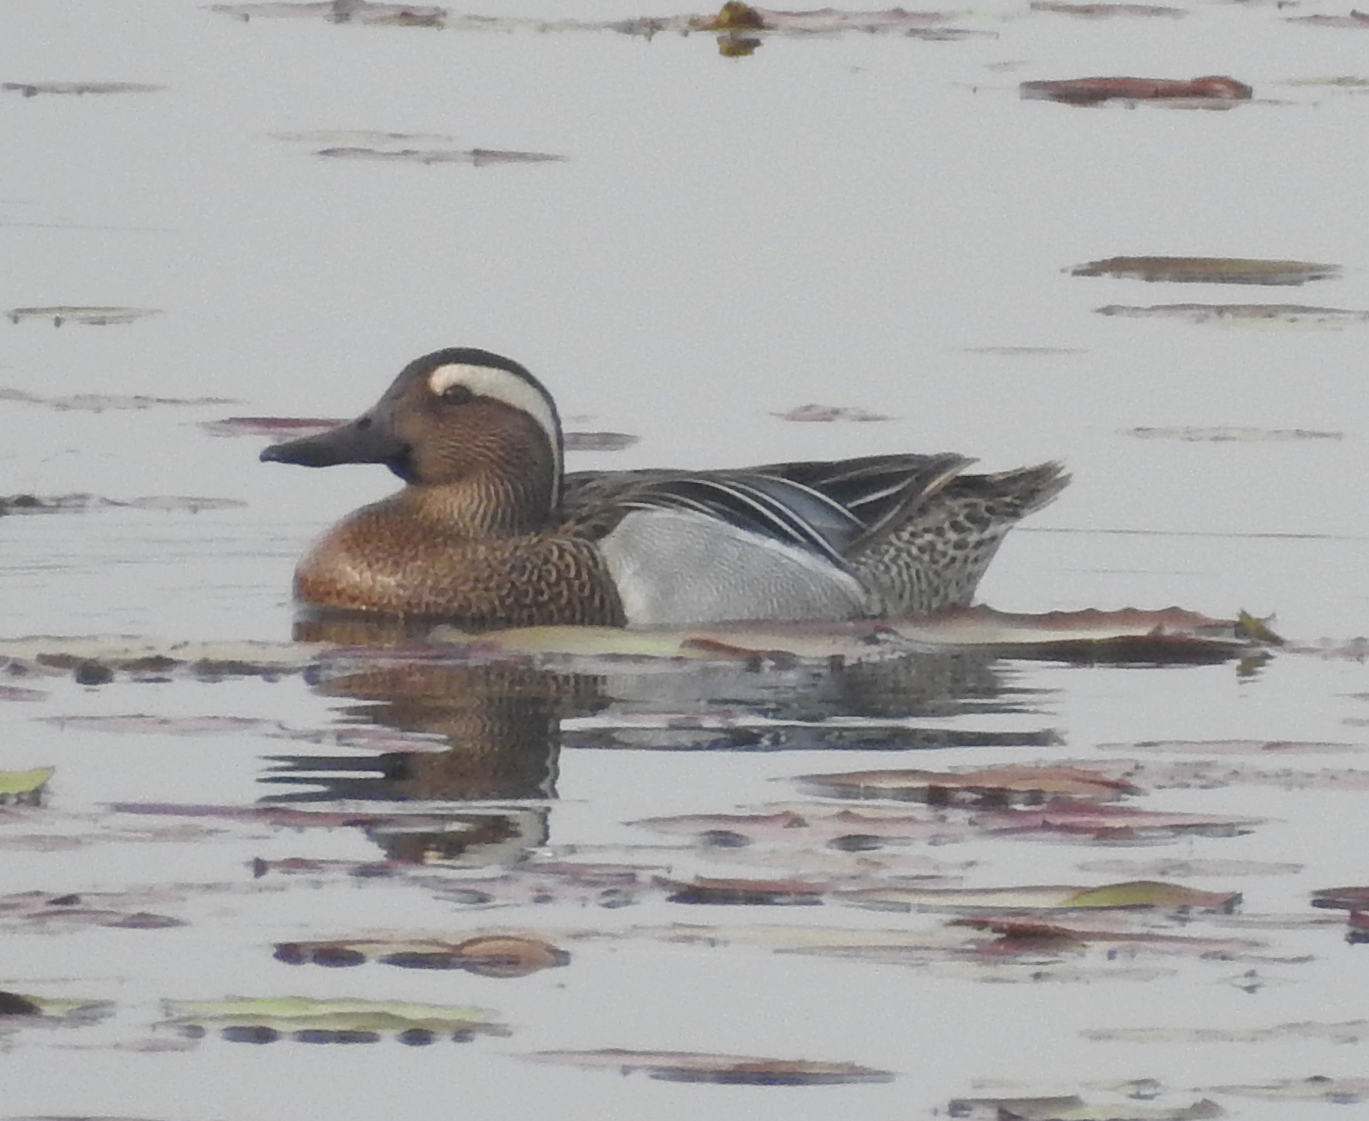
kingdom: Animalia
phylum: Chordata
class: Aves
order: Anseriformes
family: Anatidae
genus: Spatula
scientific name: Spatula querquedula
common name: Garganey
